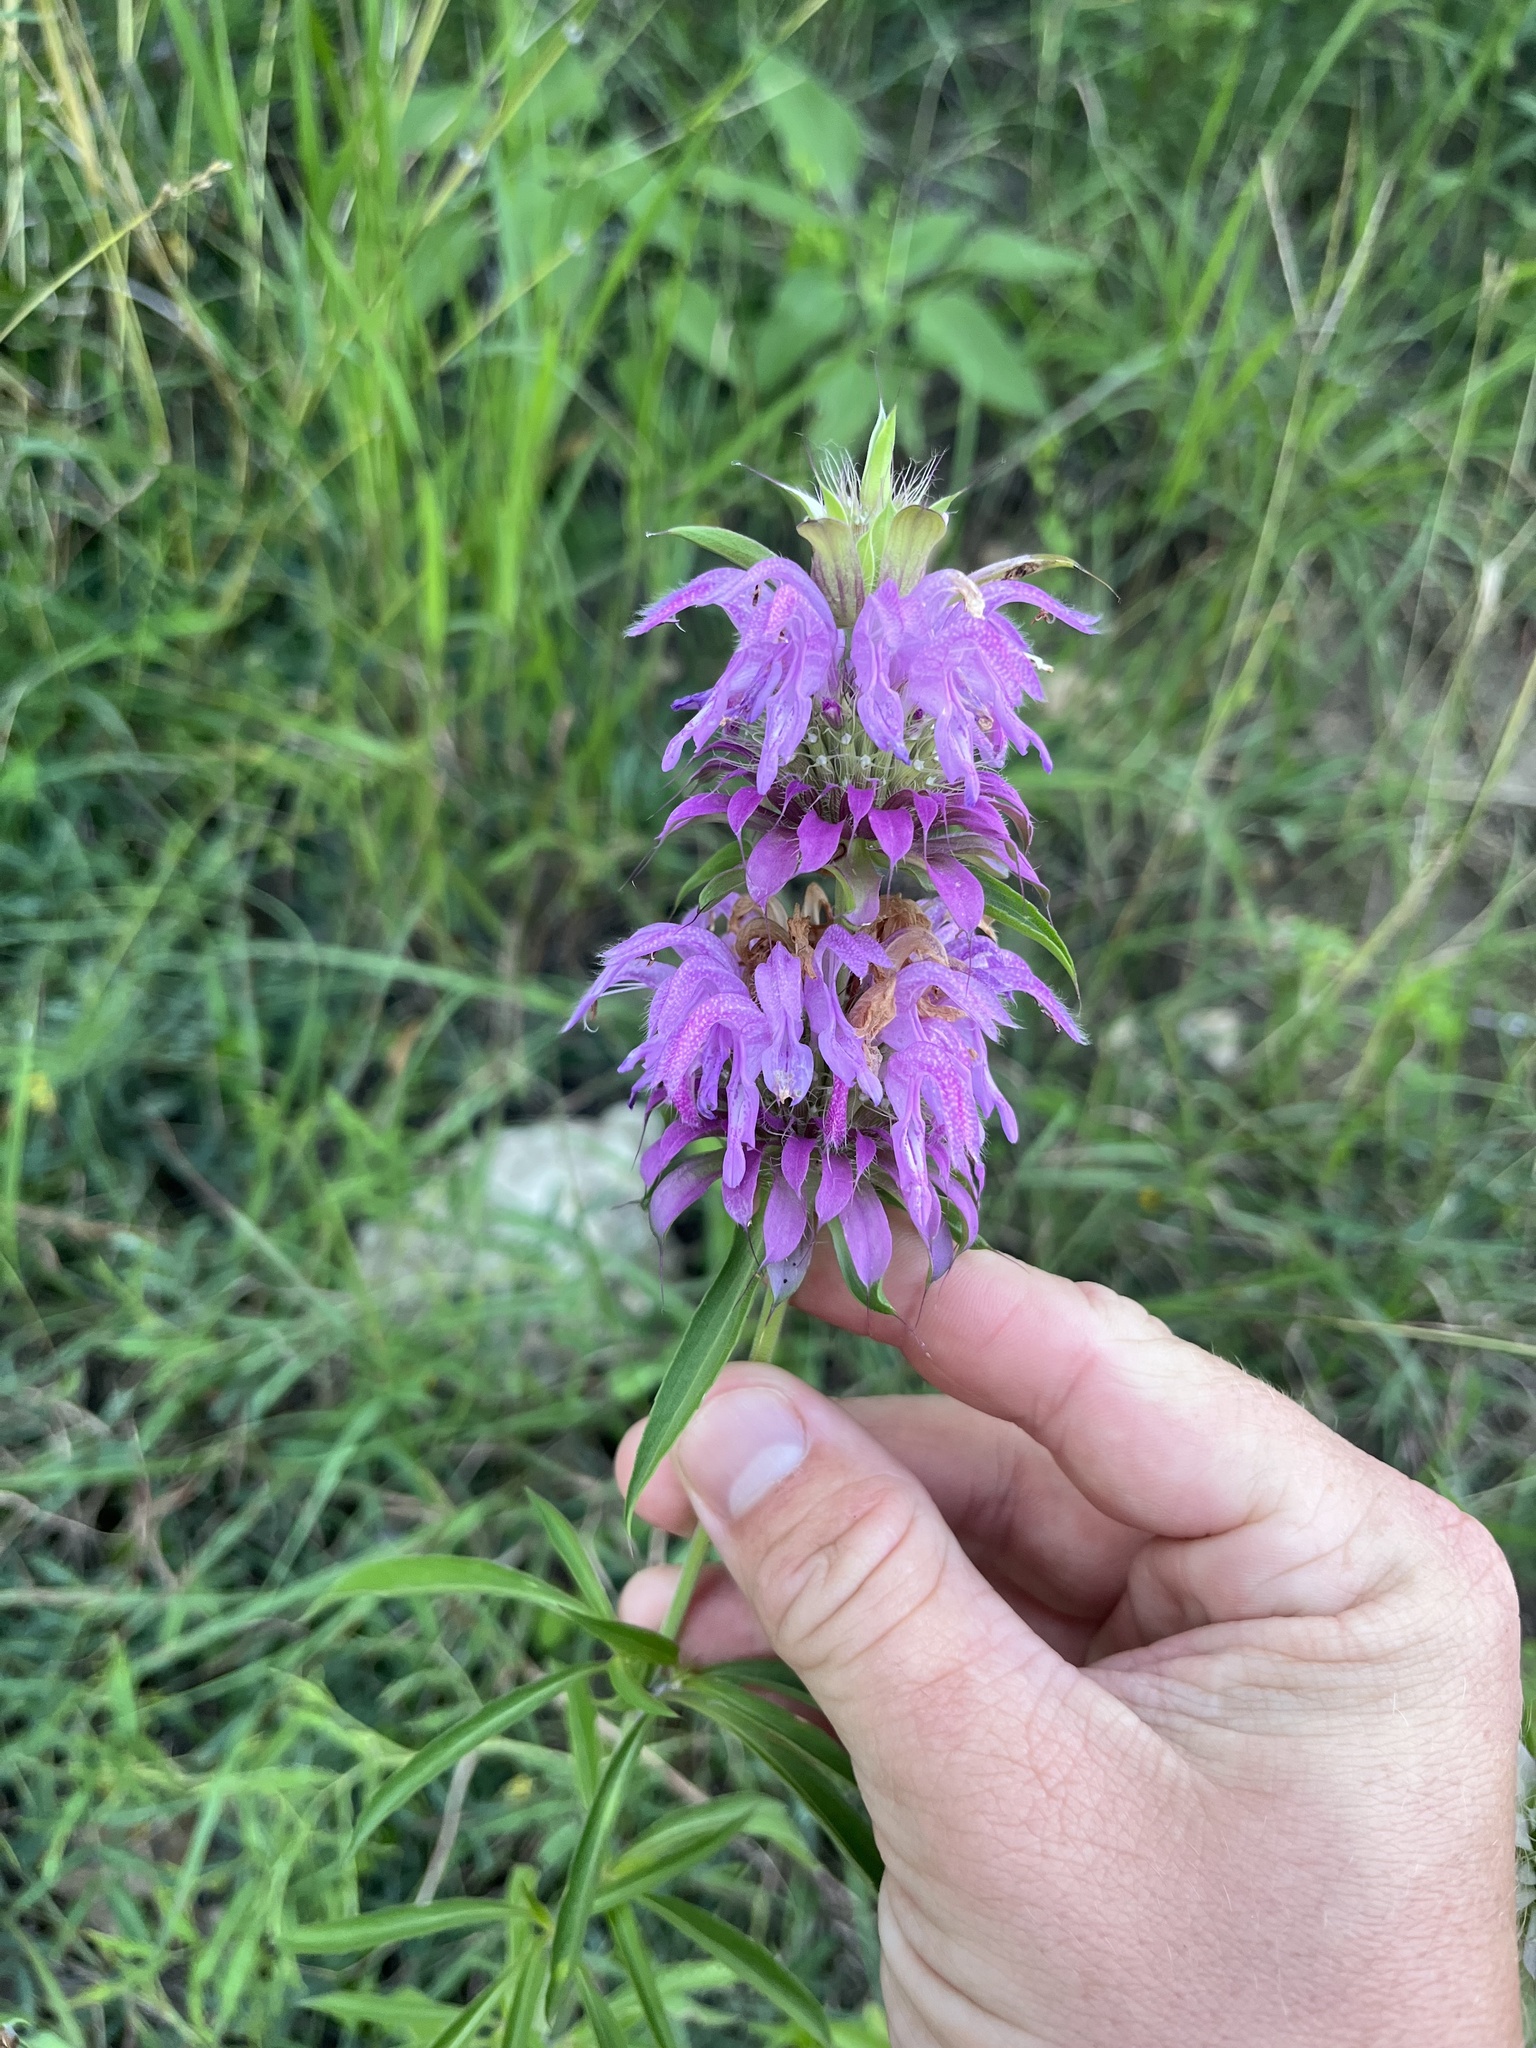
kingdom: Plantae
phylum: Tracheophyta
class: Magnoliopsida
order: Lamiales
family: Lamiaceae
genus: Monarda
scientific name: Monarda citriodora
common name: Lemon beebalm
